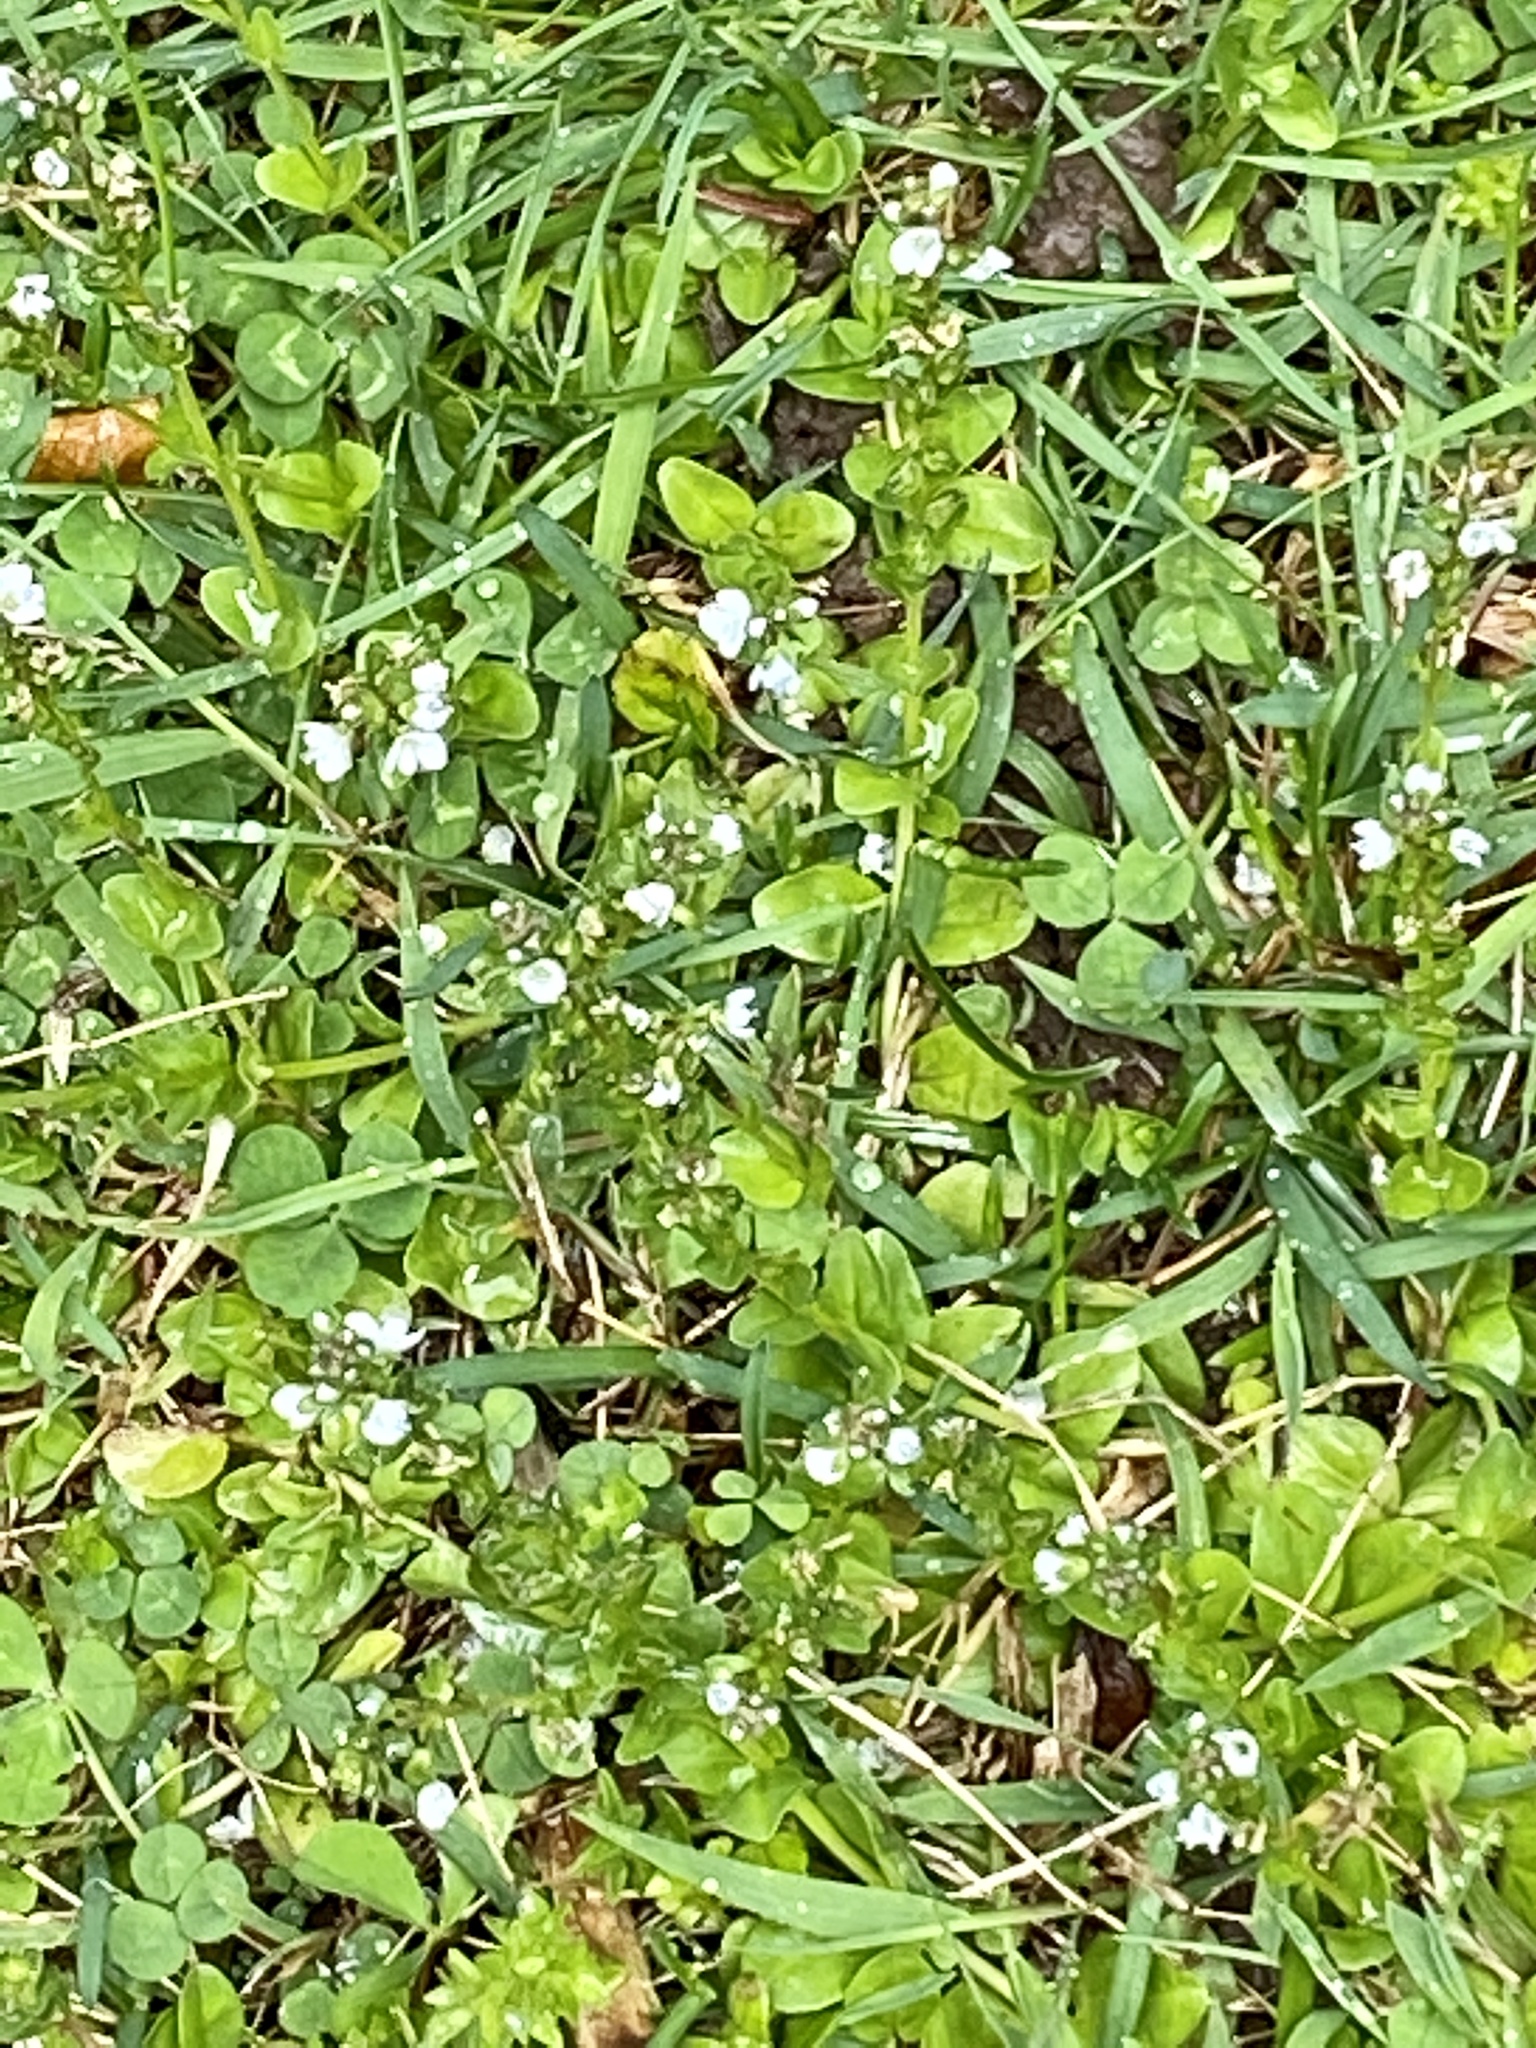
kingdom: Plantae
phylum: Tracheophyta
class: Magnoliopsida
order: Lamiales
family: Plantaginaceae
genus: Veronica
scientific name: Veronica serpyllifolia
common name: Thyme-leaved speedwell
